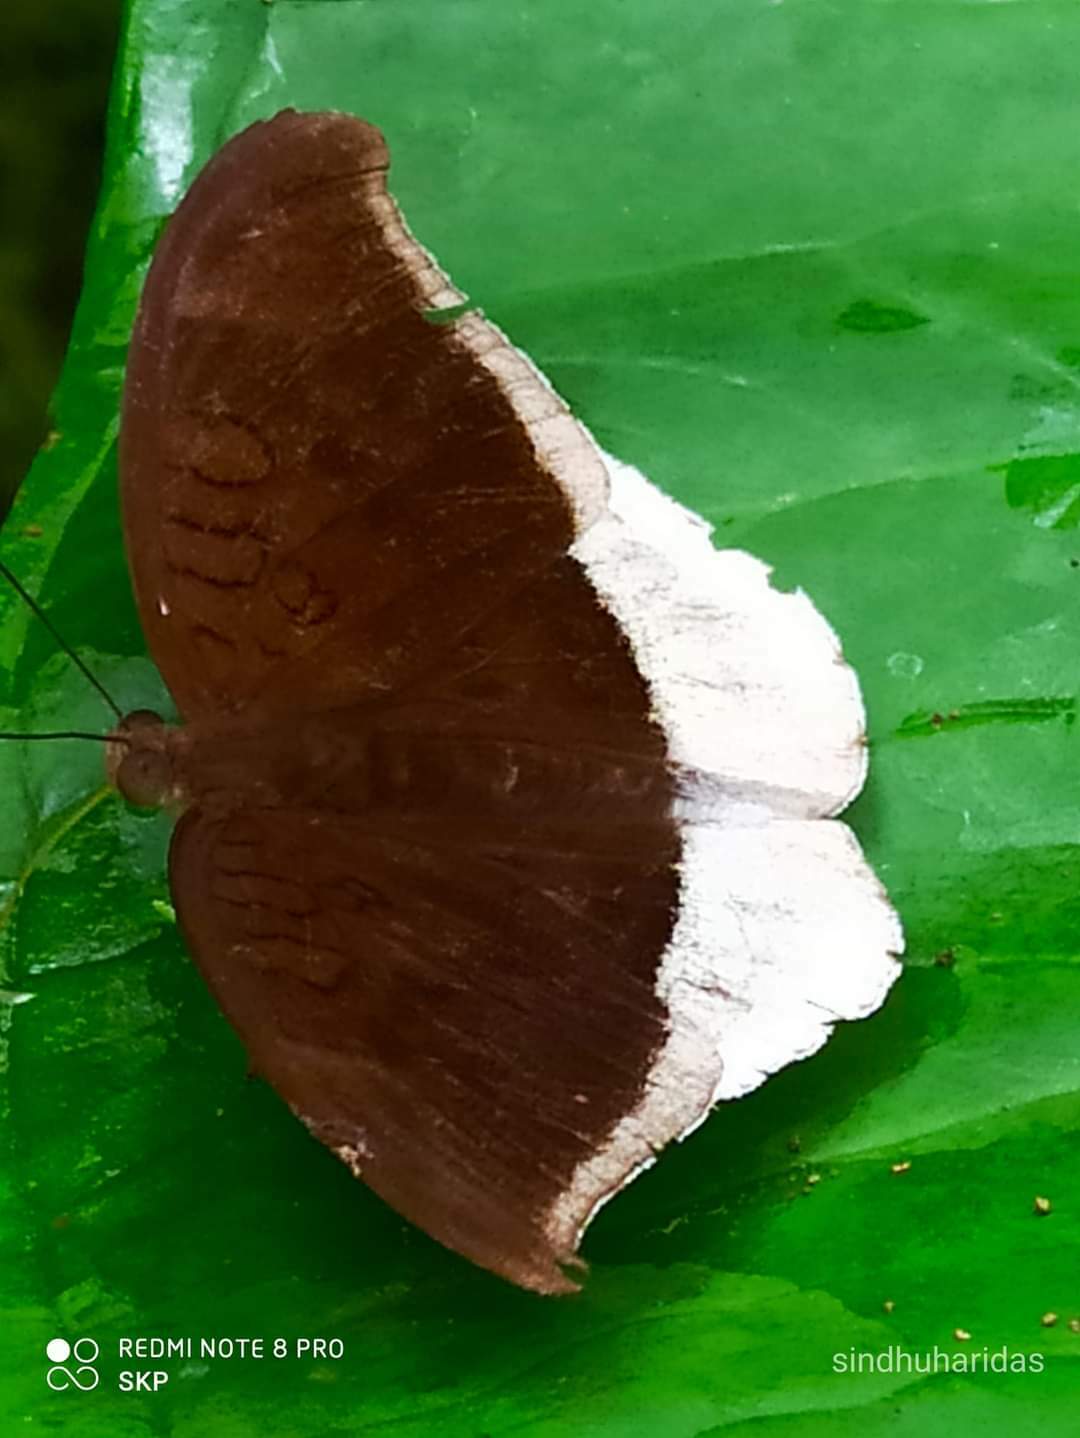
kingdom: Animalia
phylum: Arthropoda
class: Insecta
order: Lepidoptera
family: Nymphalidae
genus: Tanaecia
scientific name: Tanaecia lepidea
